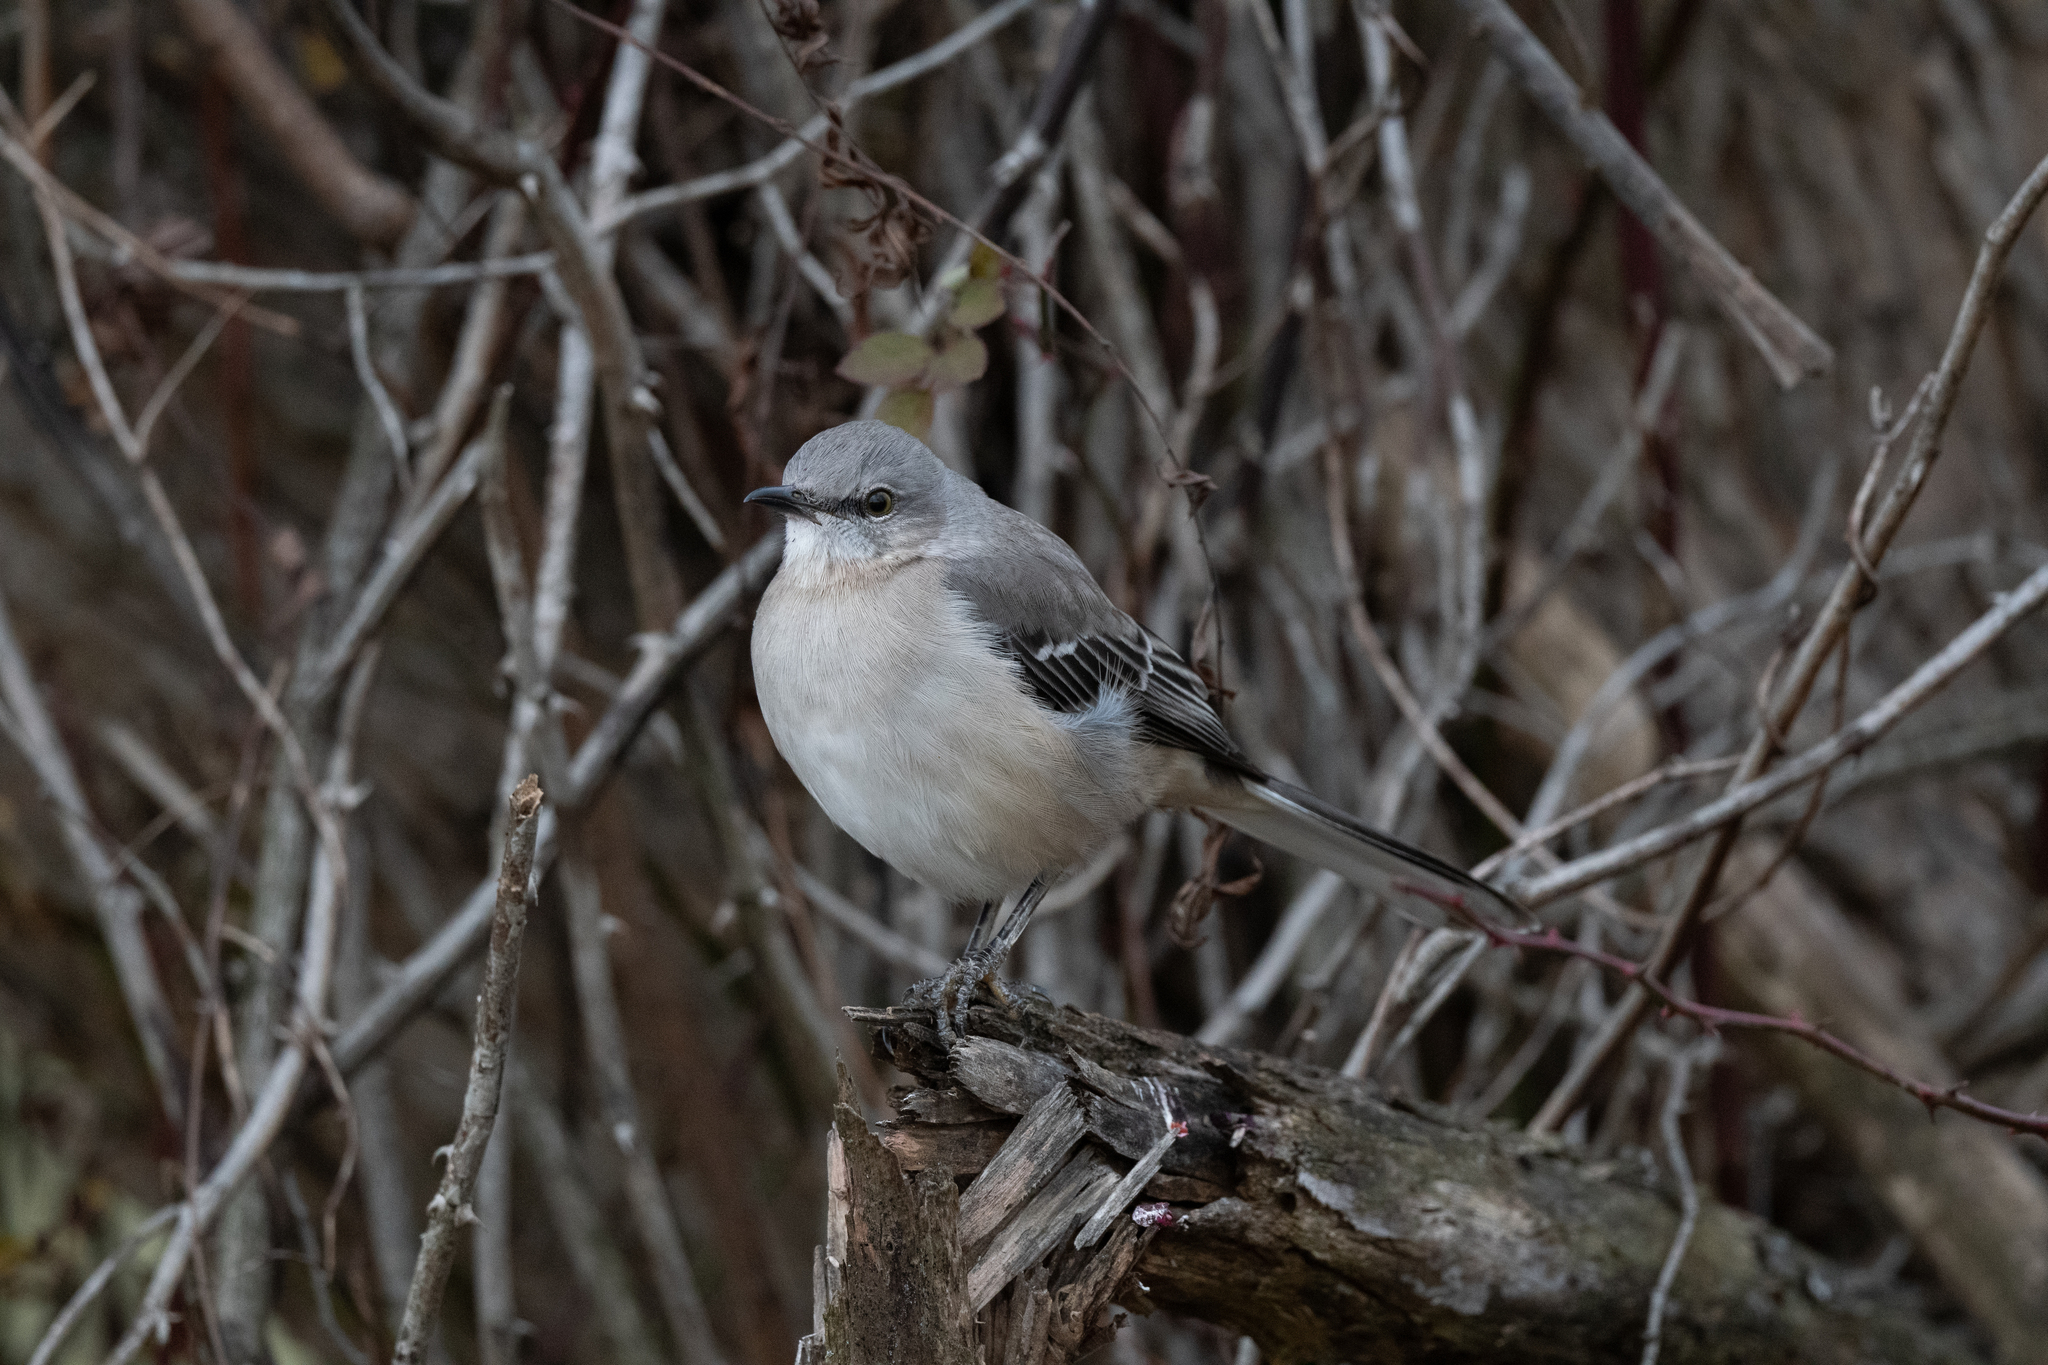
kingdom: Animalia
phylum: Chordata
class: Aves
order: Passeriformes
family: Mimidae
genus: Mimus
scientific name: Mimus polyglottos
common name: Northern mockingbird
